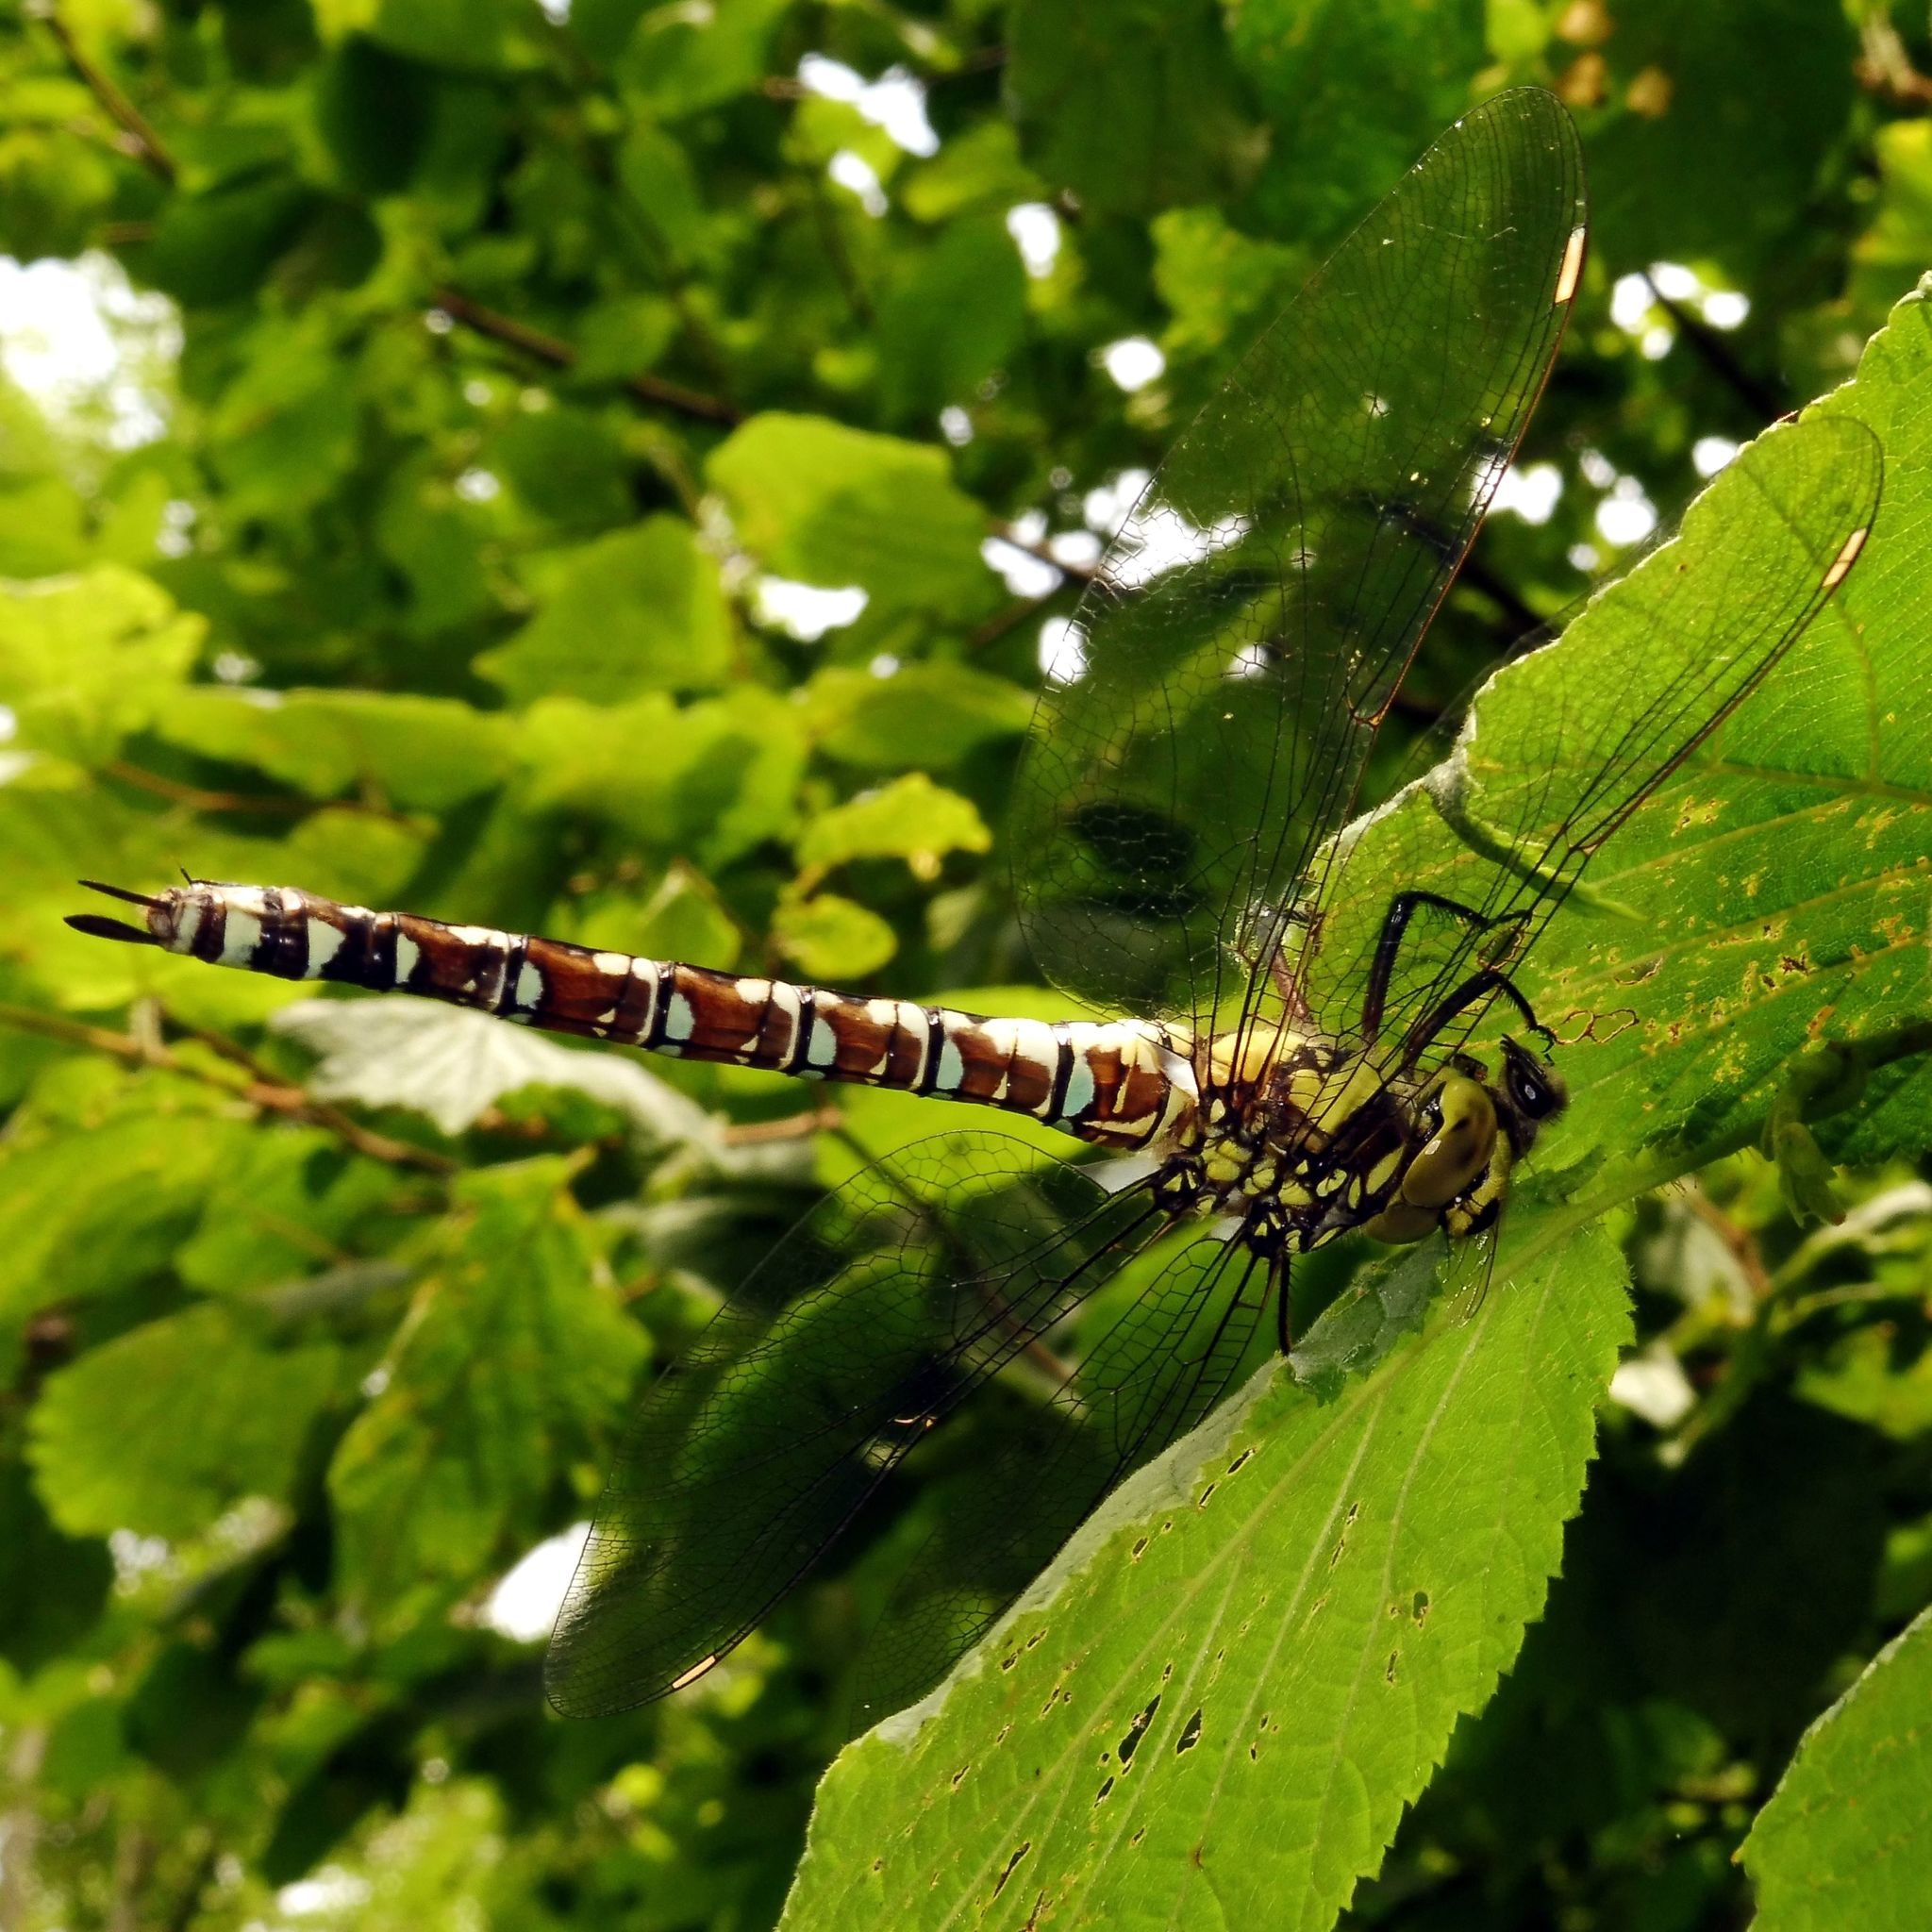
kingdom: Animalia
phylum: Arthropoda
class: Insecta
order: Odonata
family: Aeshnidae
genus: Aeshna
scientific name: Aeshna cyanea
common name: Southern hawker
